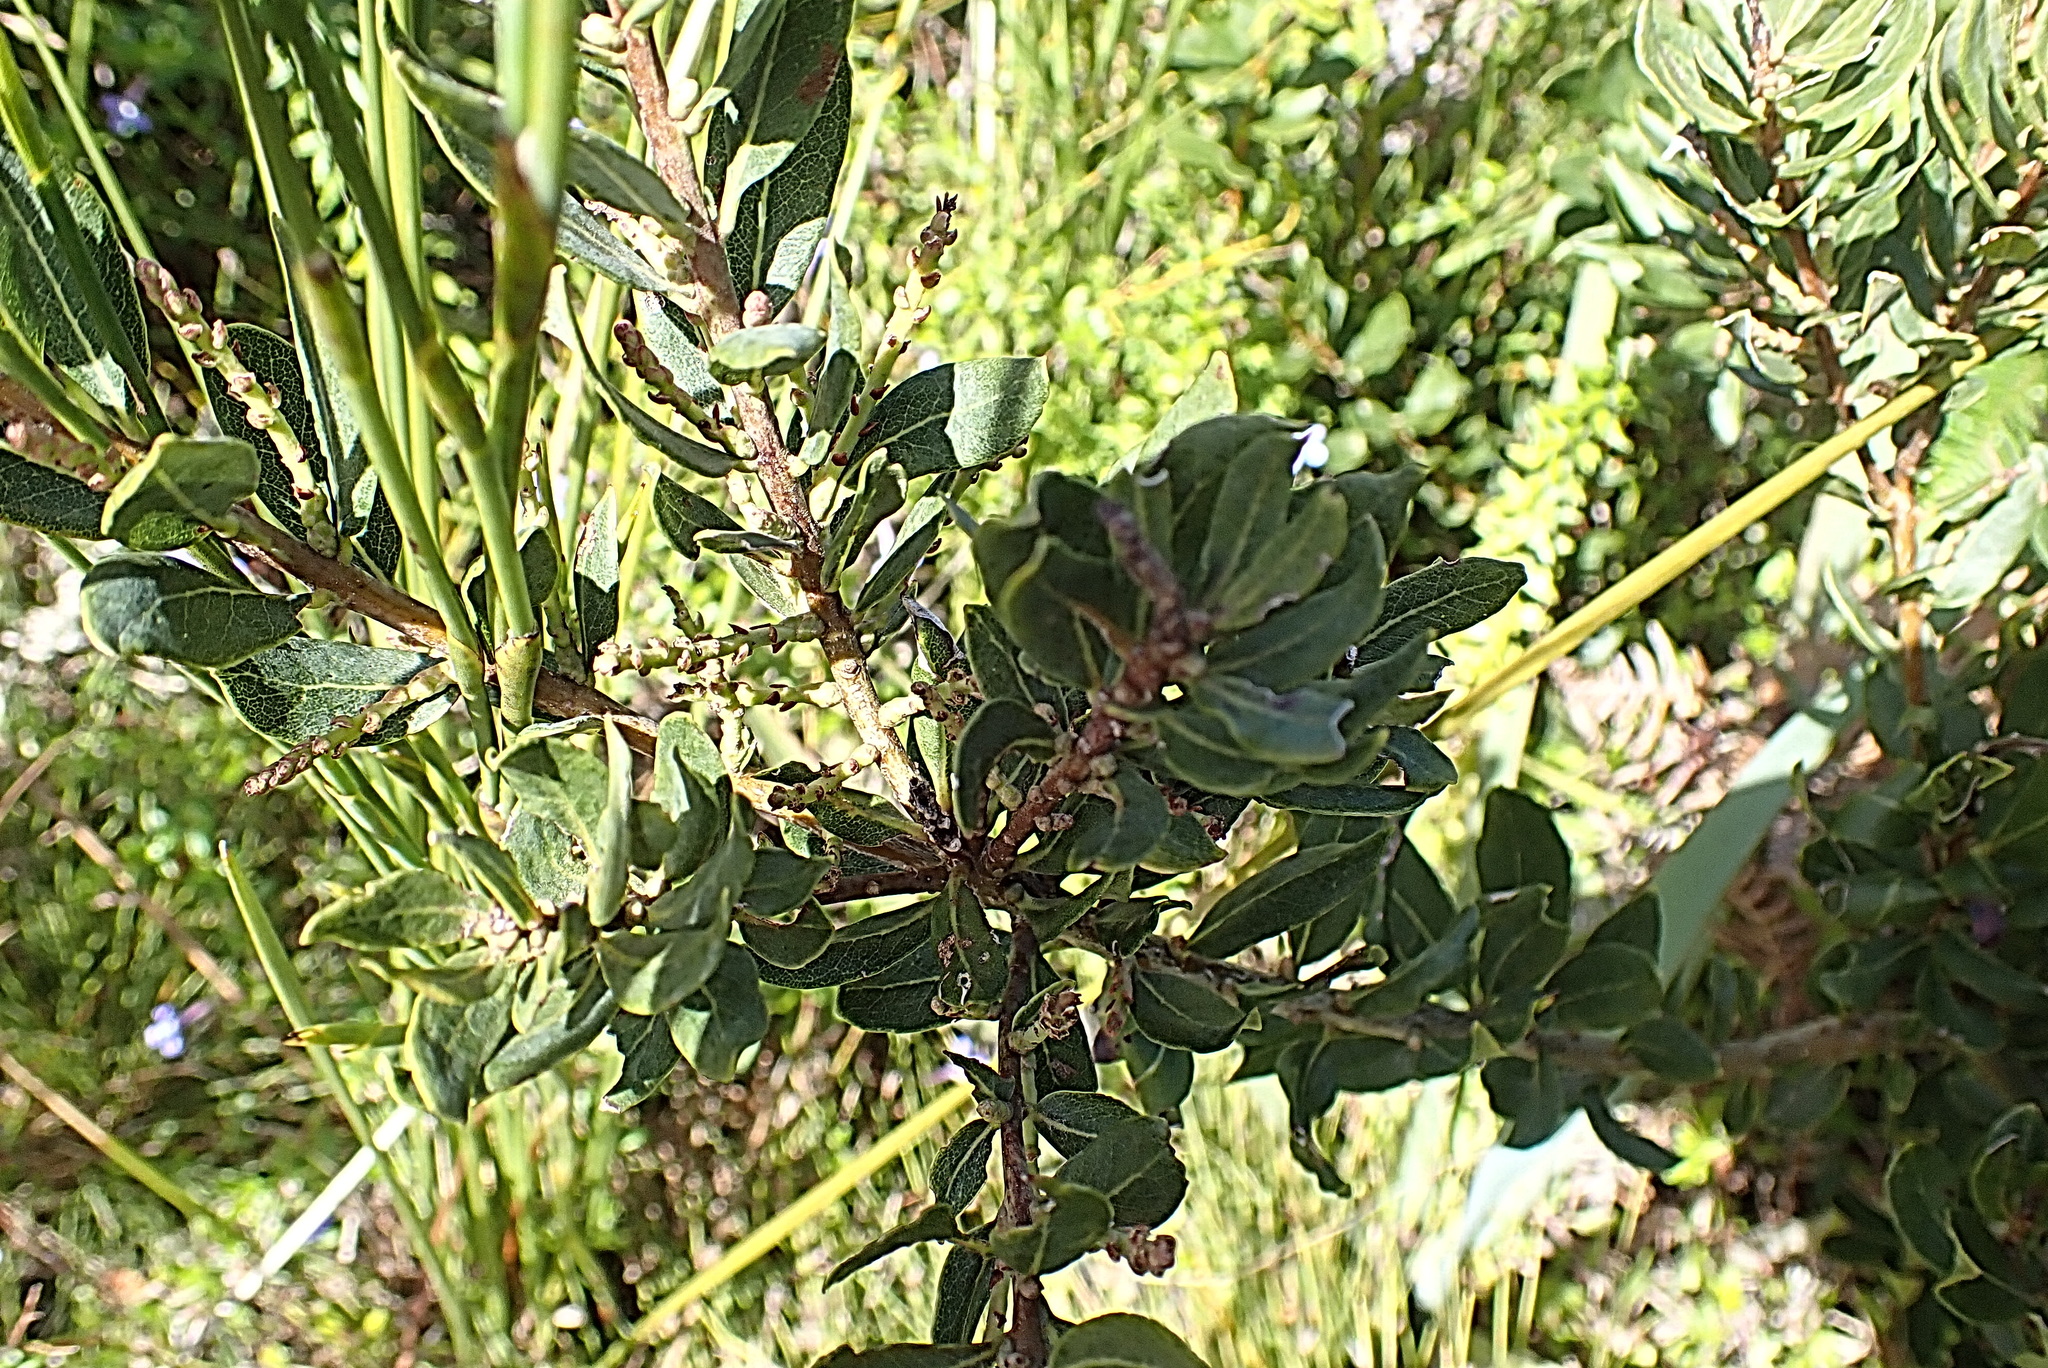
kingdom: Plantae
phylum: Tracheophyta
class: Magnoliopsida
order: Fagales
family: Myricaceae
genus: Morella
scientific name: Morella humilis
